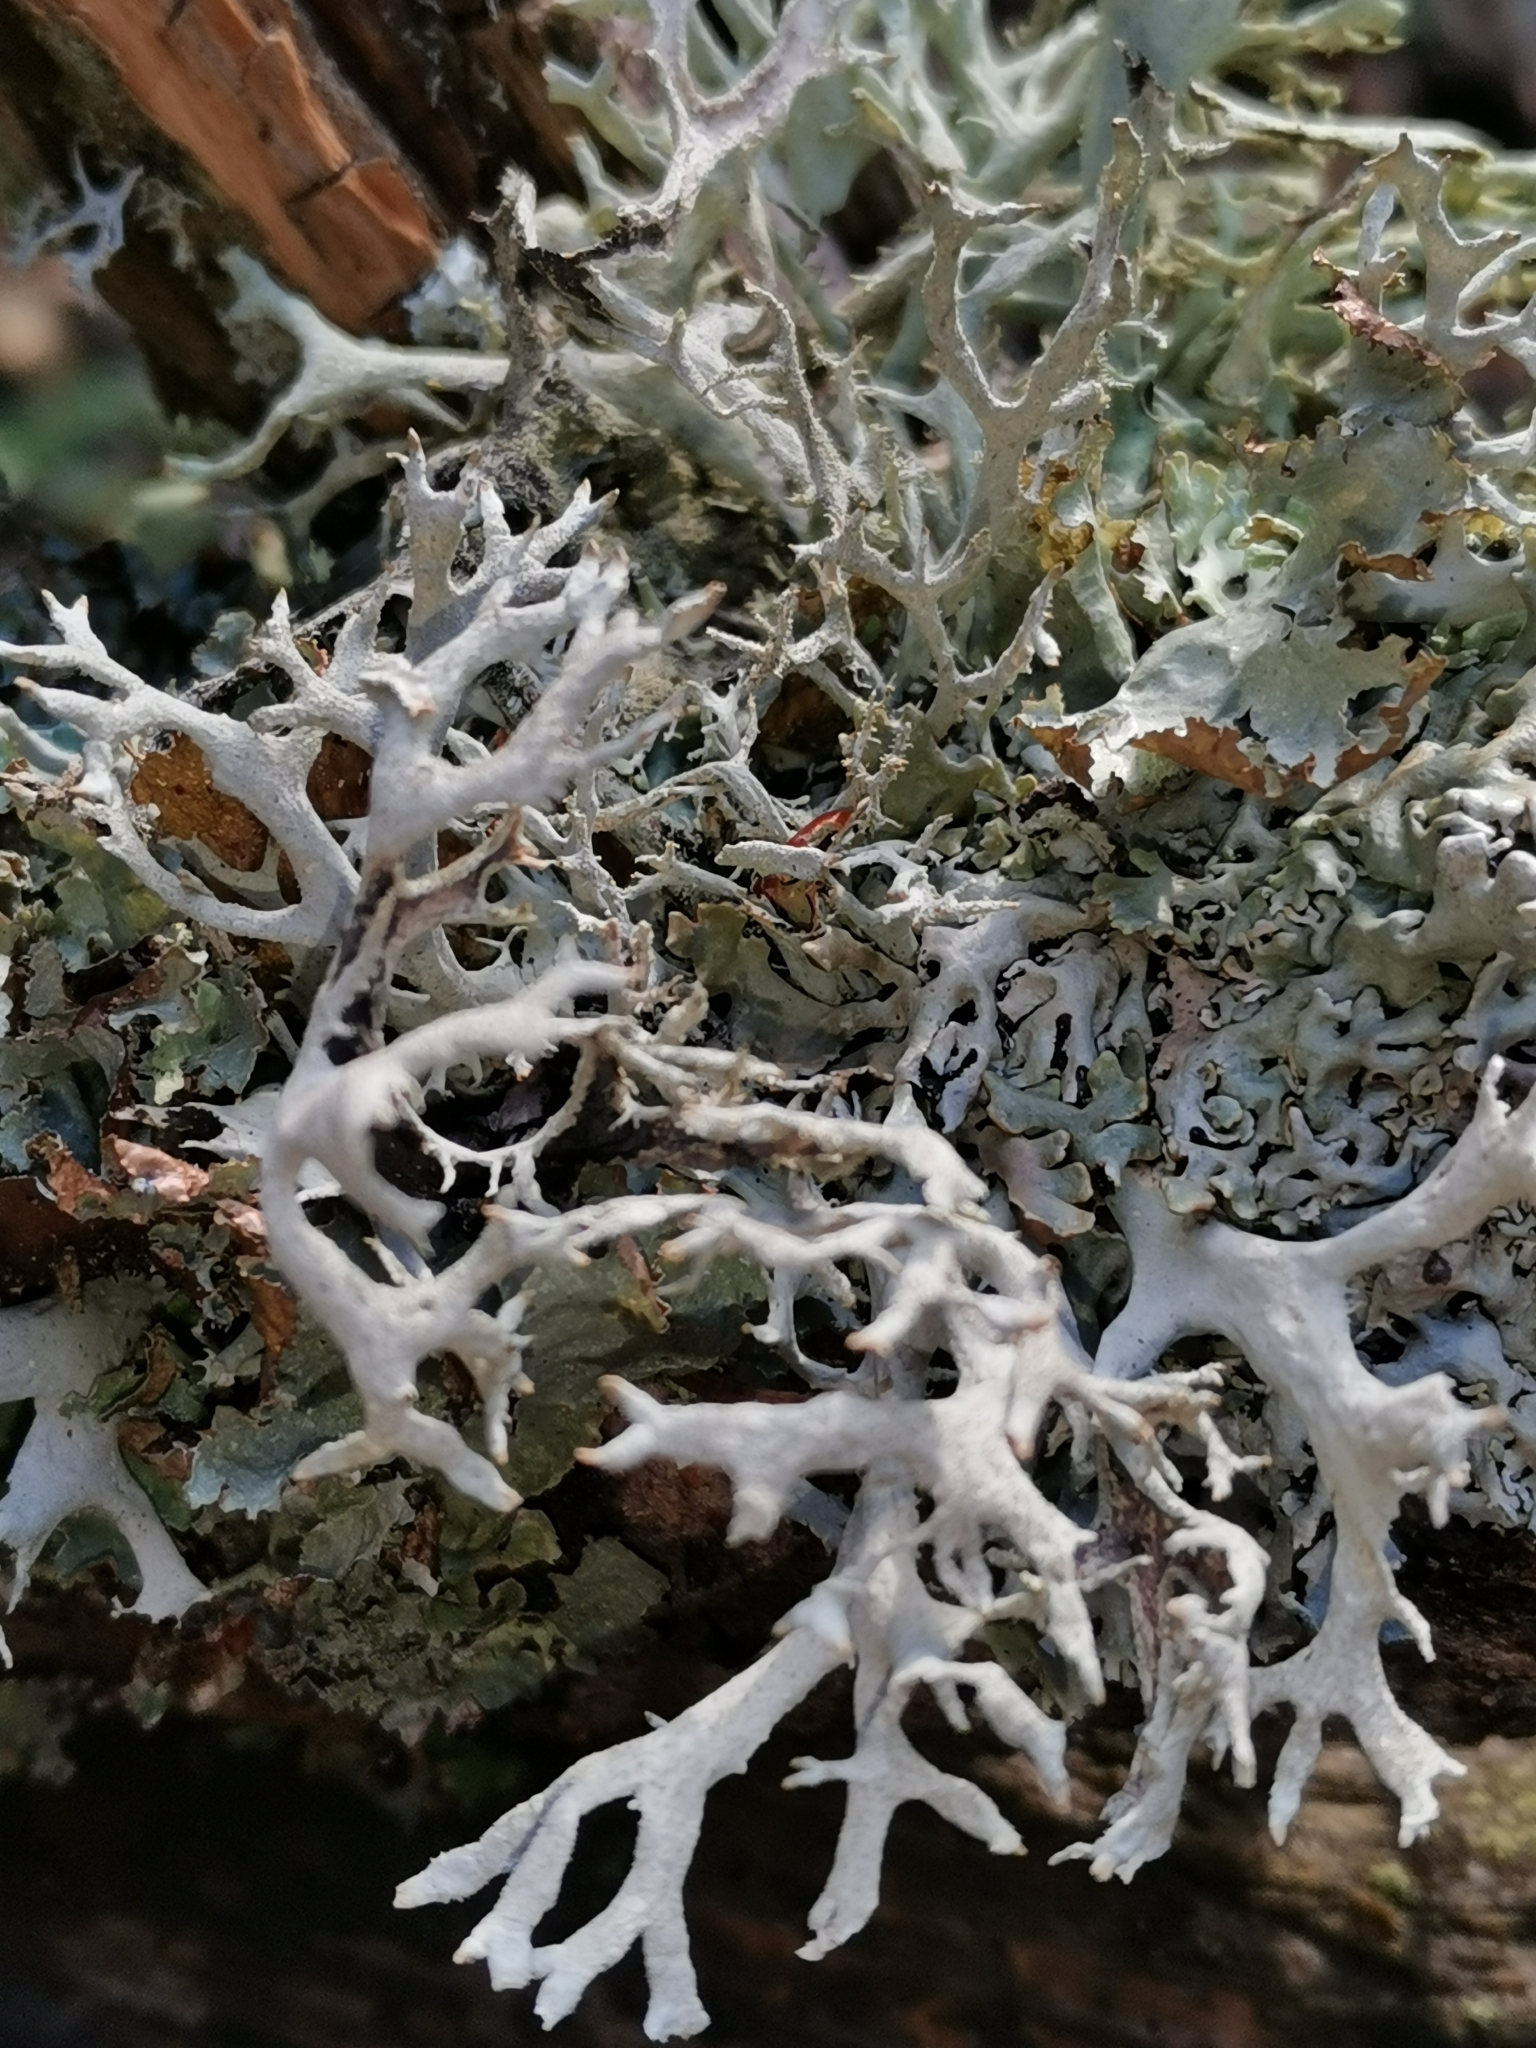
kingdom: Fungi
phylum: Ascomycota
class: Lecanoromycetes
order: Lecanorales
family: Parmeliaceae
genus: Pseudevernia
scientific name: Pseudevernia furfuracea
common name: Tree moss
